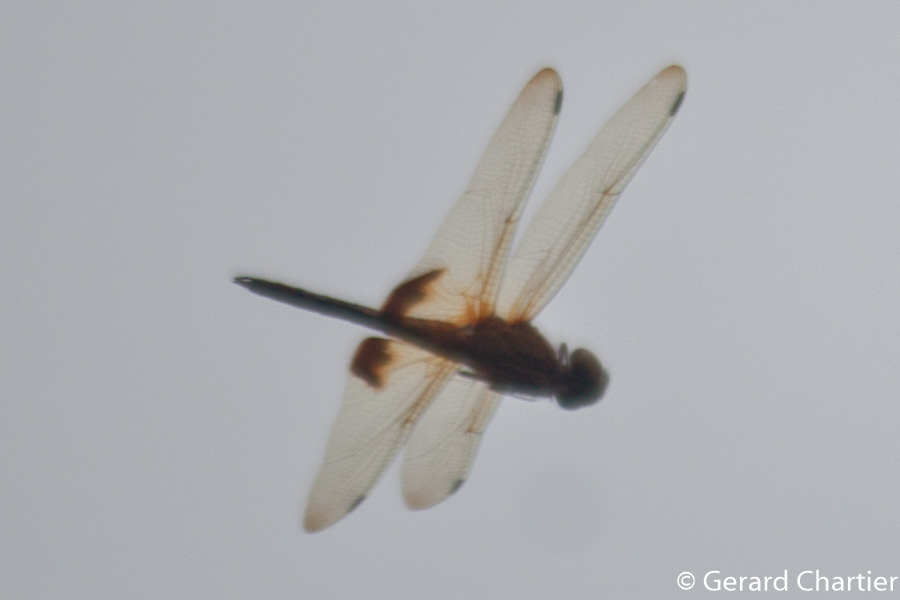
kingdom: Animalia
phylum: Arthropoda
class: Insecta
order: Odonata
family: Libellulidae
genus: Hydrobasileus
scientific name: Hydrobasileus croceus
